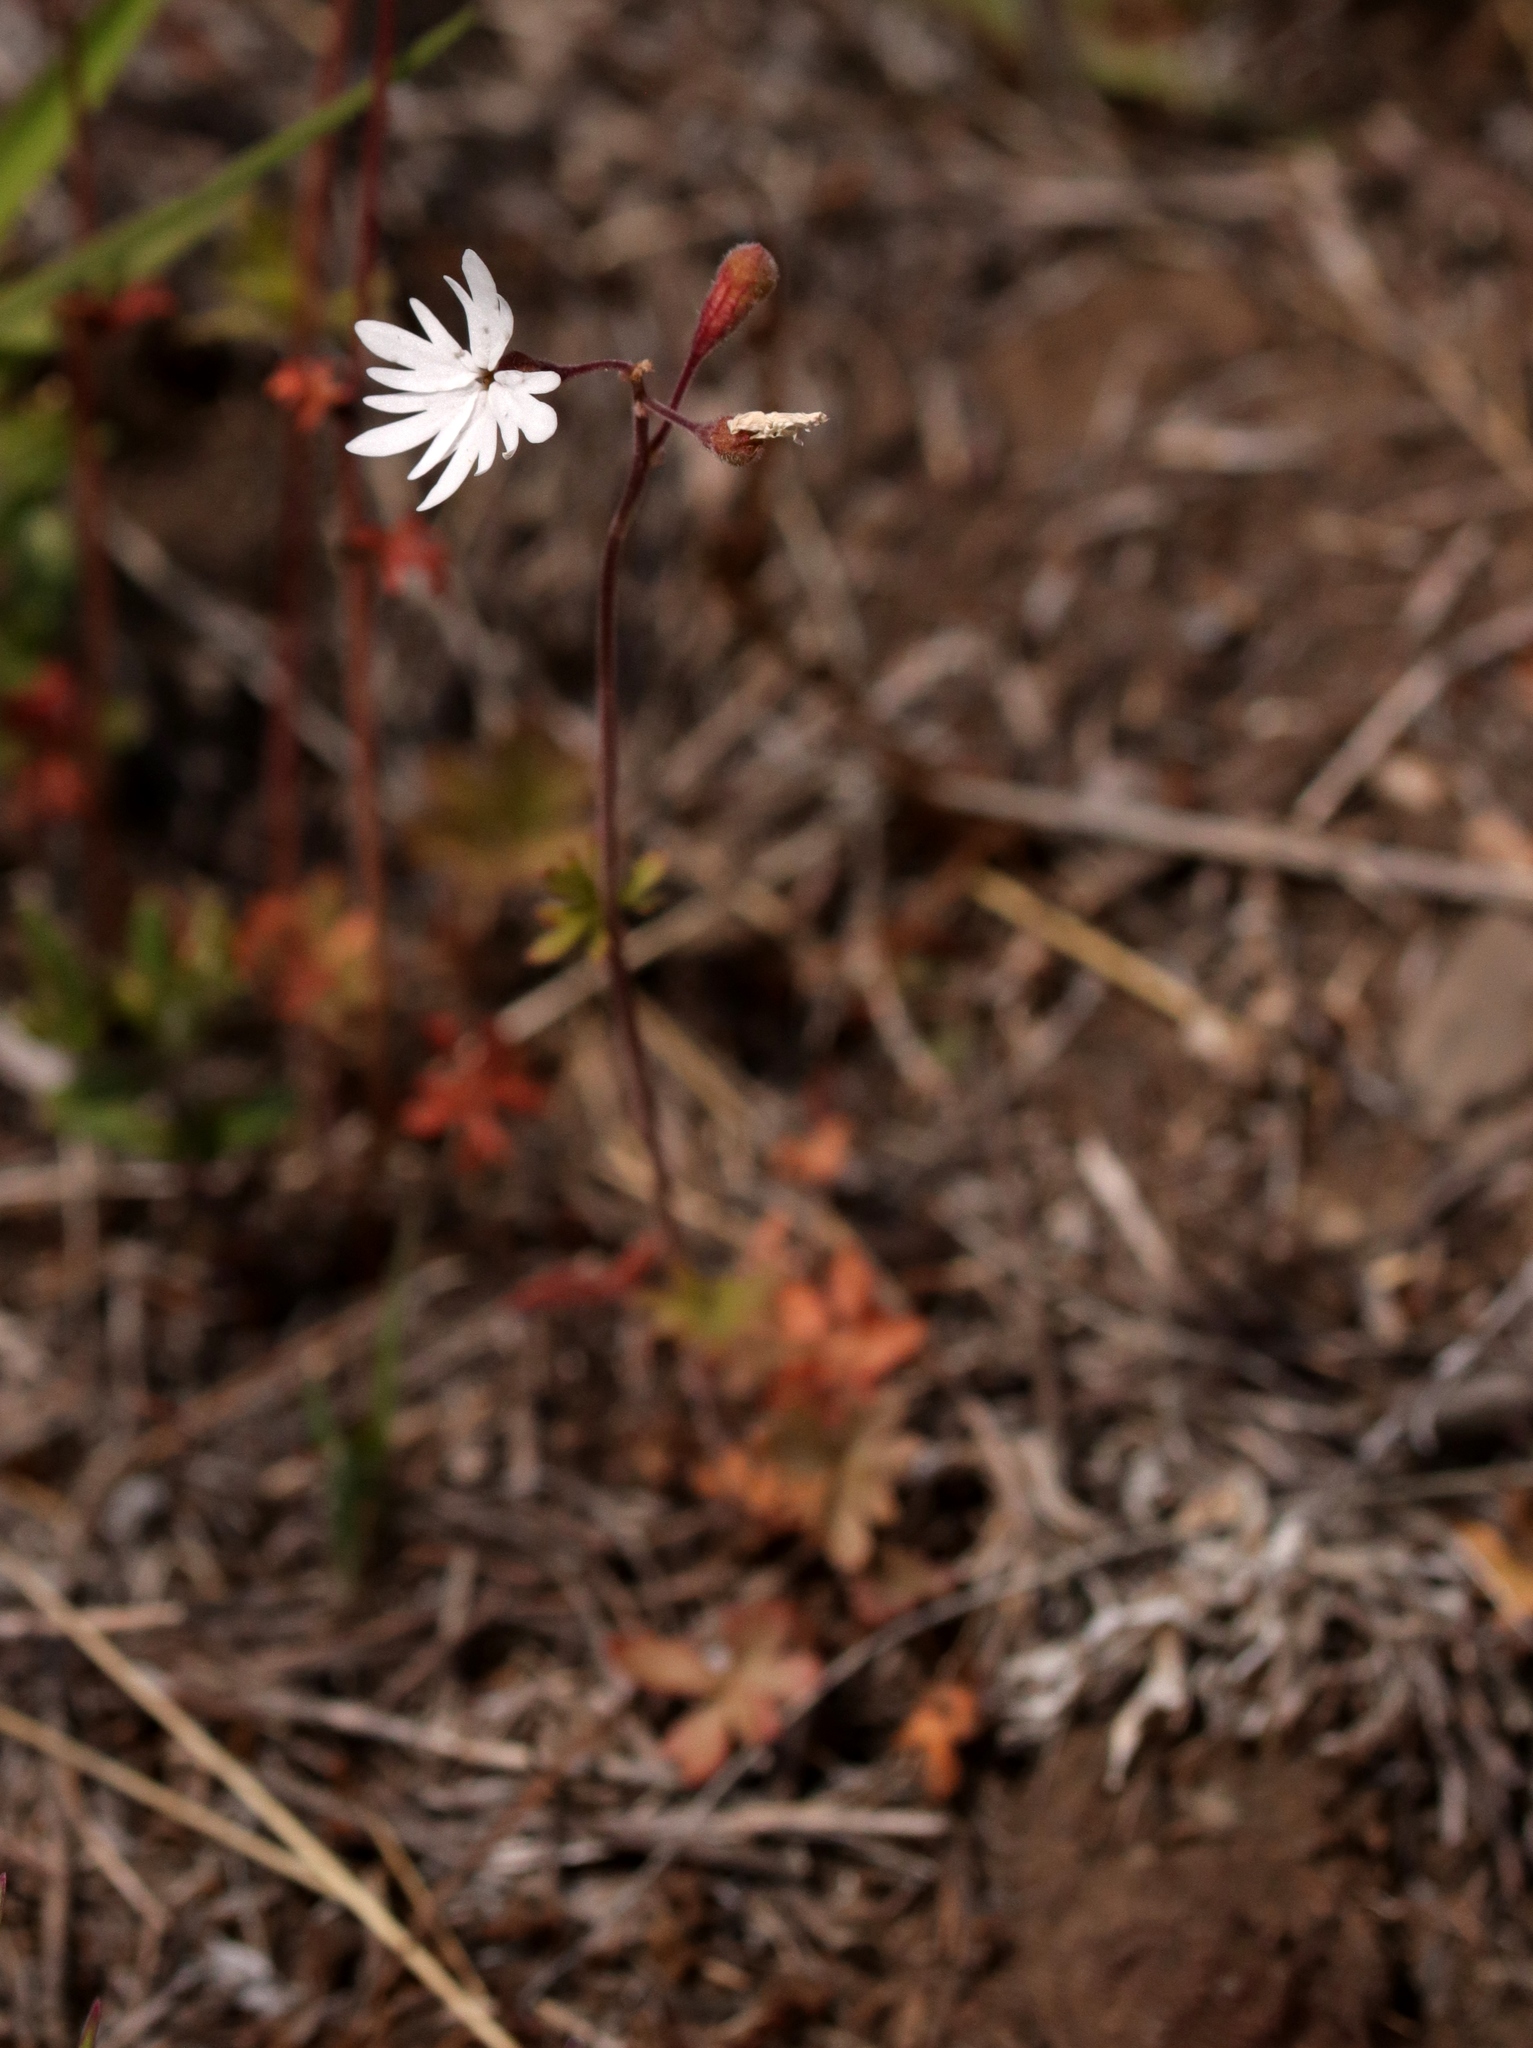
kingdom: Plantae
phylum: Tracheophyta
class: Magnoliopsida
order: Saxifragales
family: Saxifragaceae
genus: Lithophragma
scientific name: Lithophragma parviflorum
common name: Small-flowered fringe-cup
